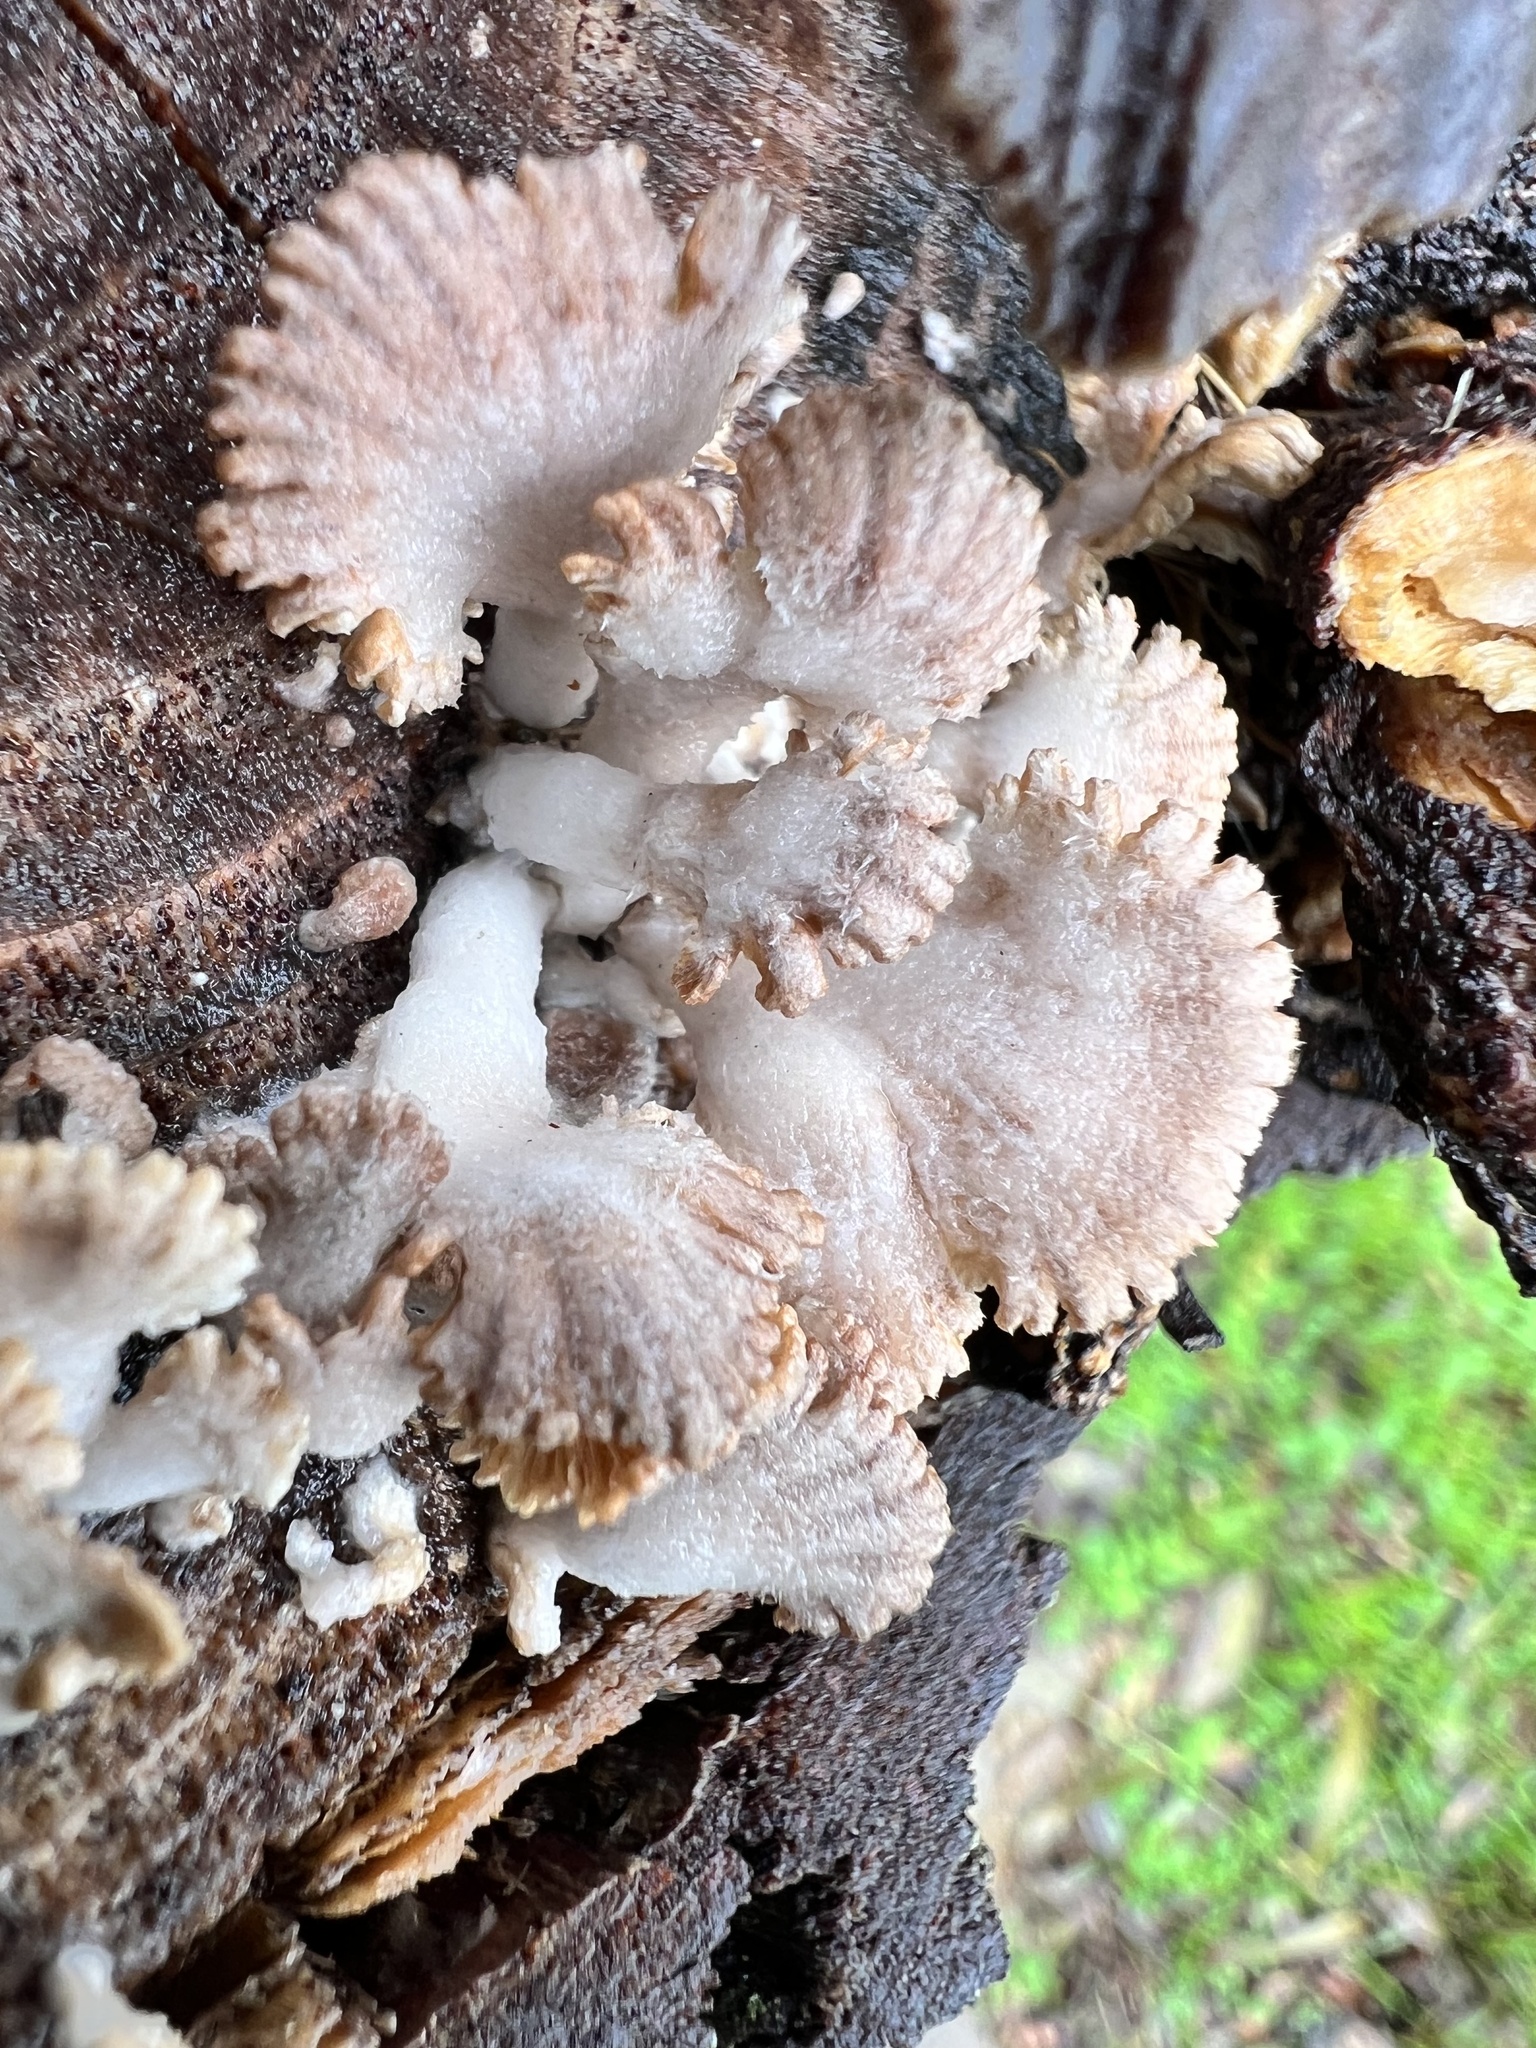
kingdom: Fungi
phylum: Basidiomycota
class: Agaricomycetes
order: Agaricales
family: Schizophyllaceae
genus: Schizophyllum
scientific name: Schizophyllum commune
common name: Common porecrust
